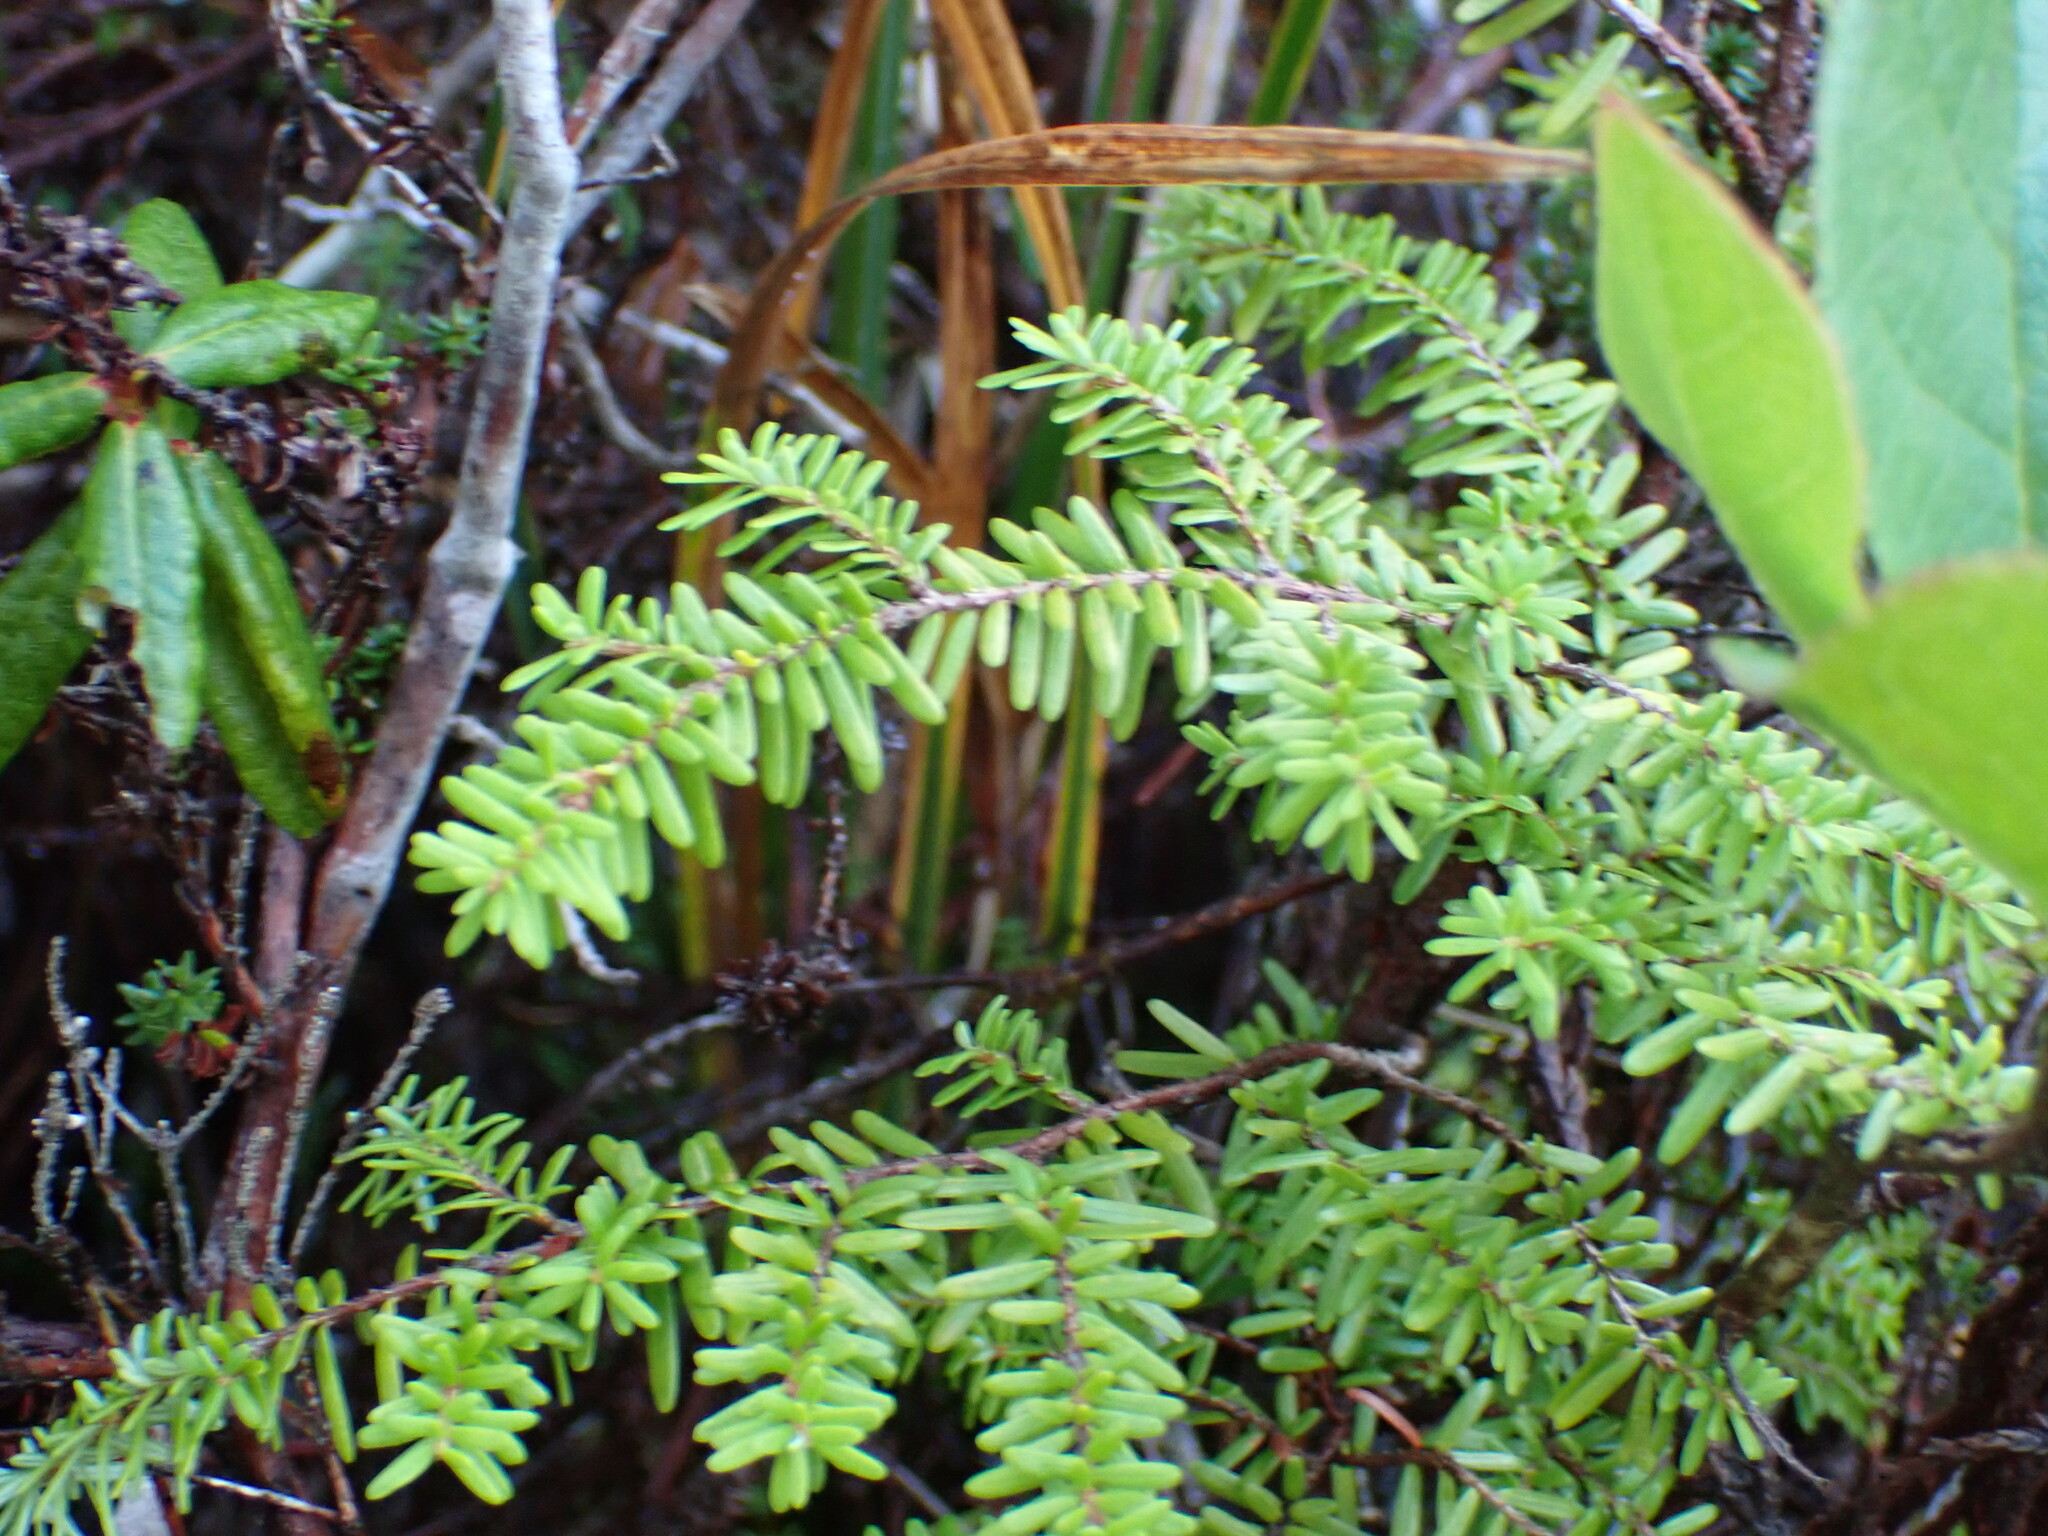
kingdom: Plantae
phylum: Tracheophyta
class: Pinopsida
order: Pinales
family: Pinaceae
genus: Tsuga
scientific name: Tsuga heterophylla
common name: Western hemlock
